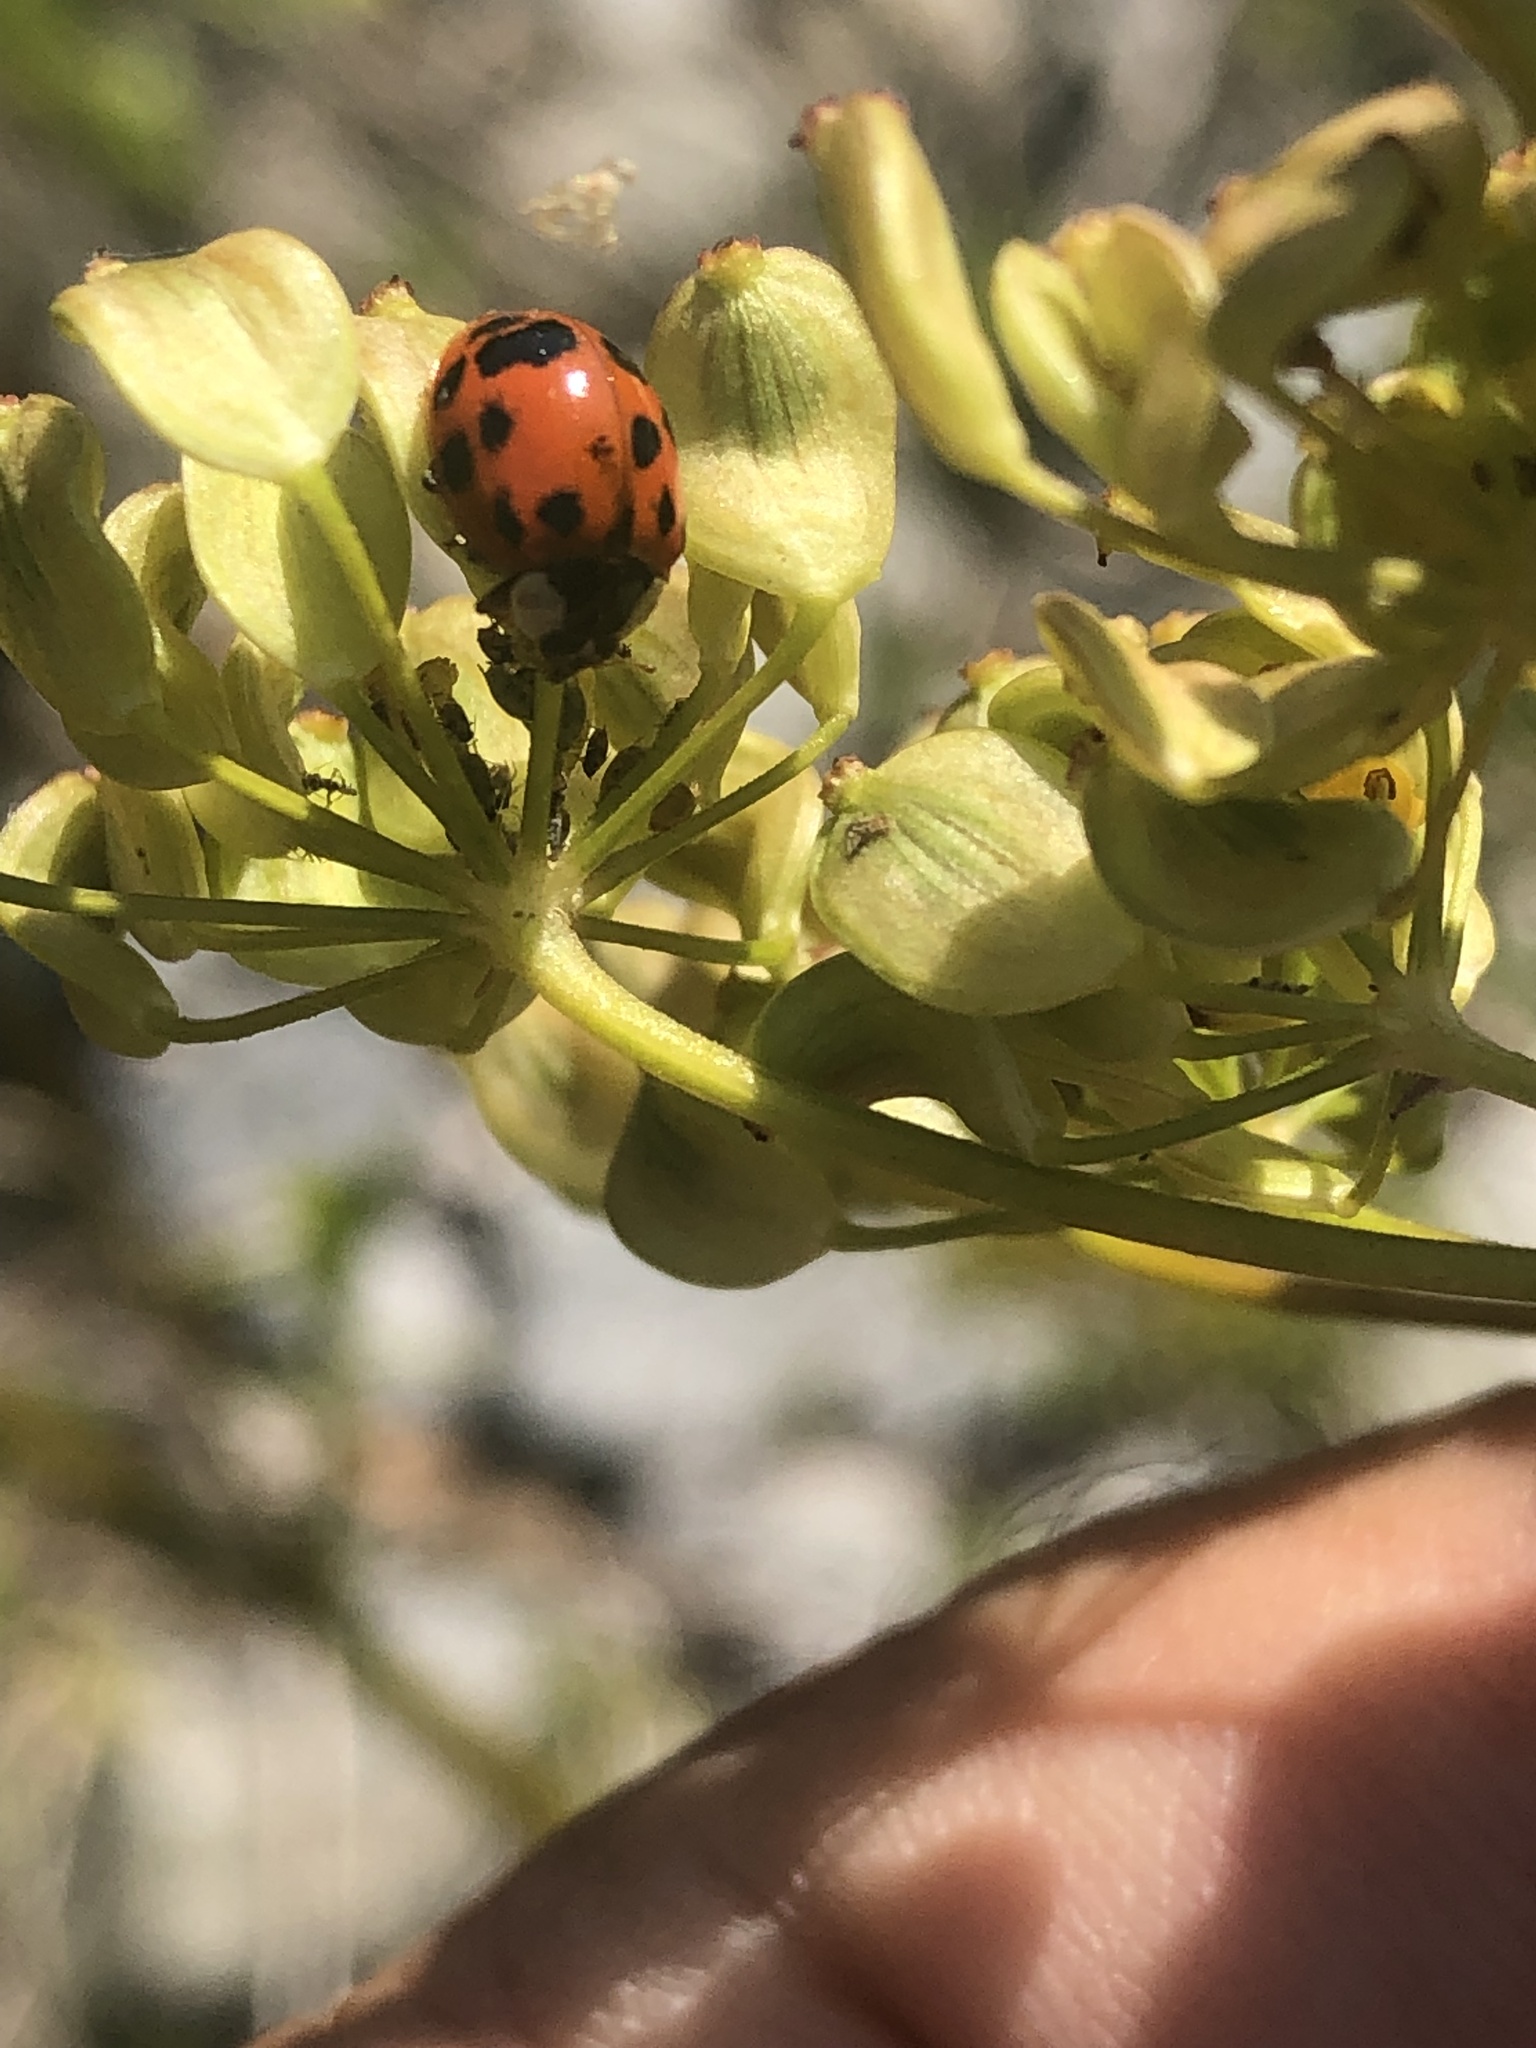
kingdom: Animalia
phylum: Arthropoda
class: Insecta
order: Coleoptera
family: Coccinellidae
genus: Harmonia
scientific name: Harmonia axyridis
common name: Harlequin ladybird
